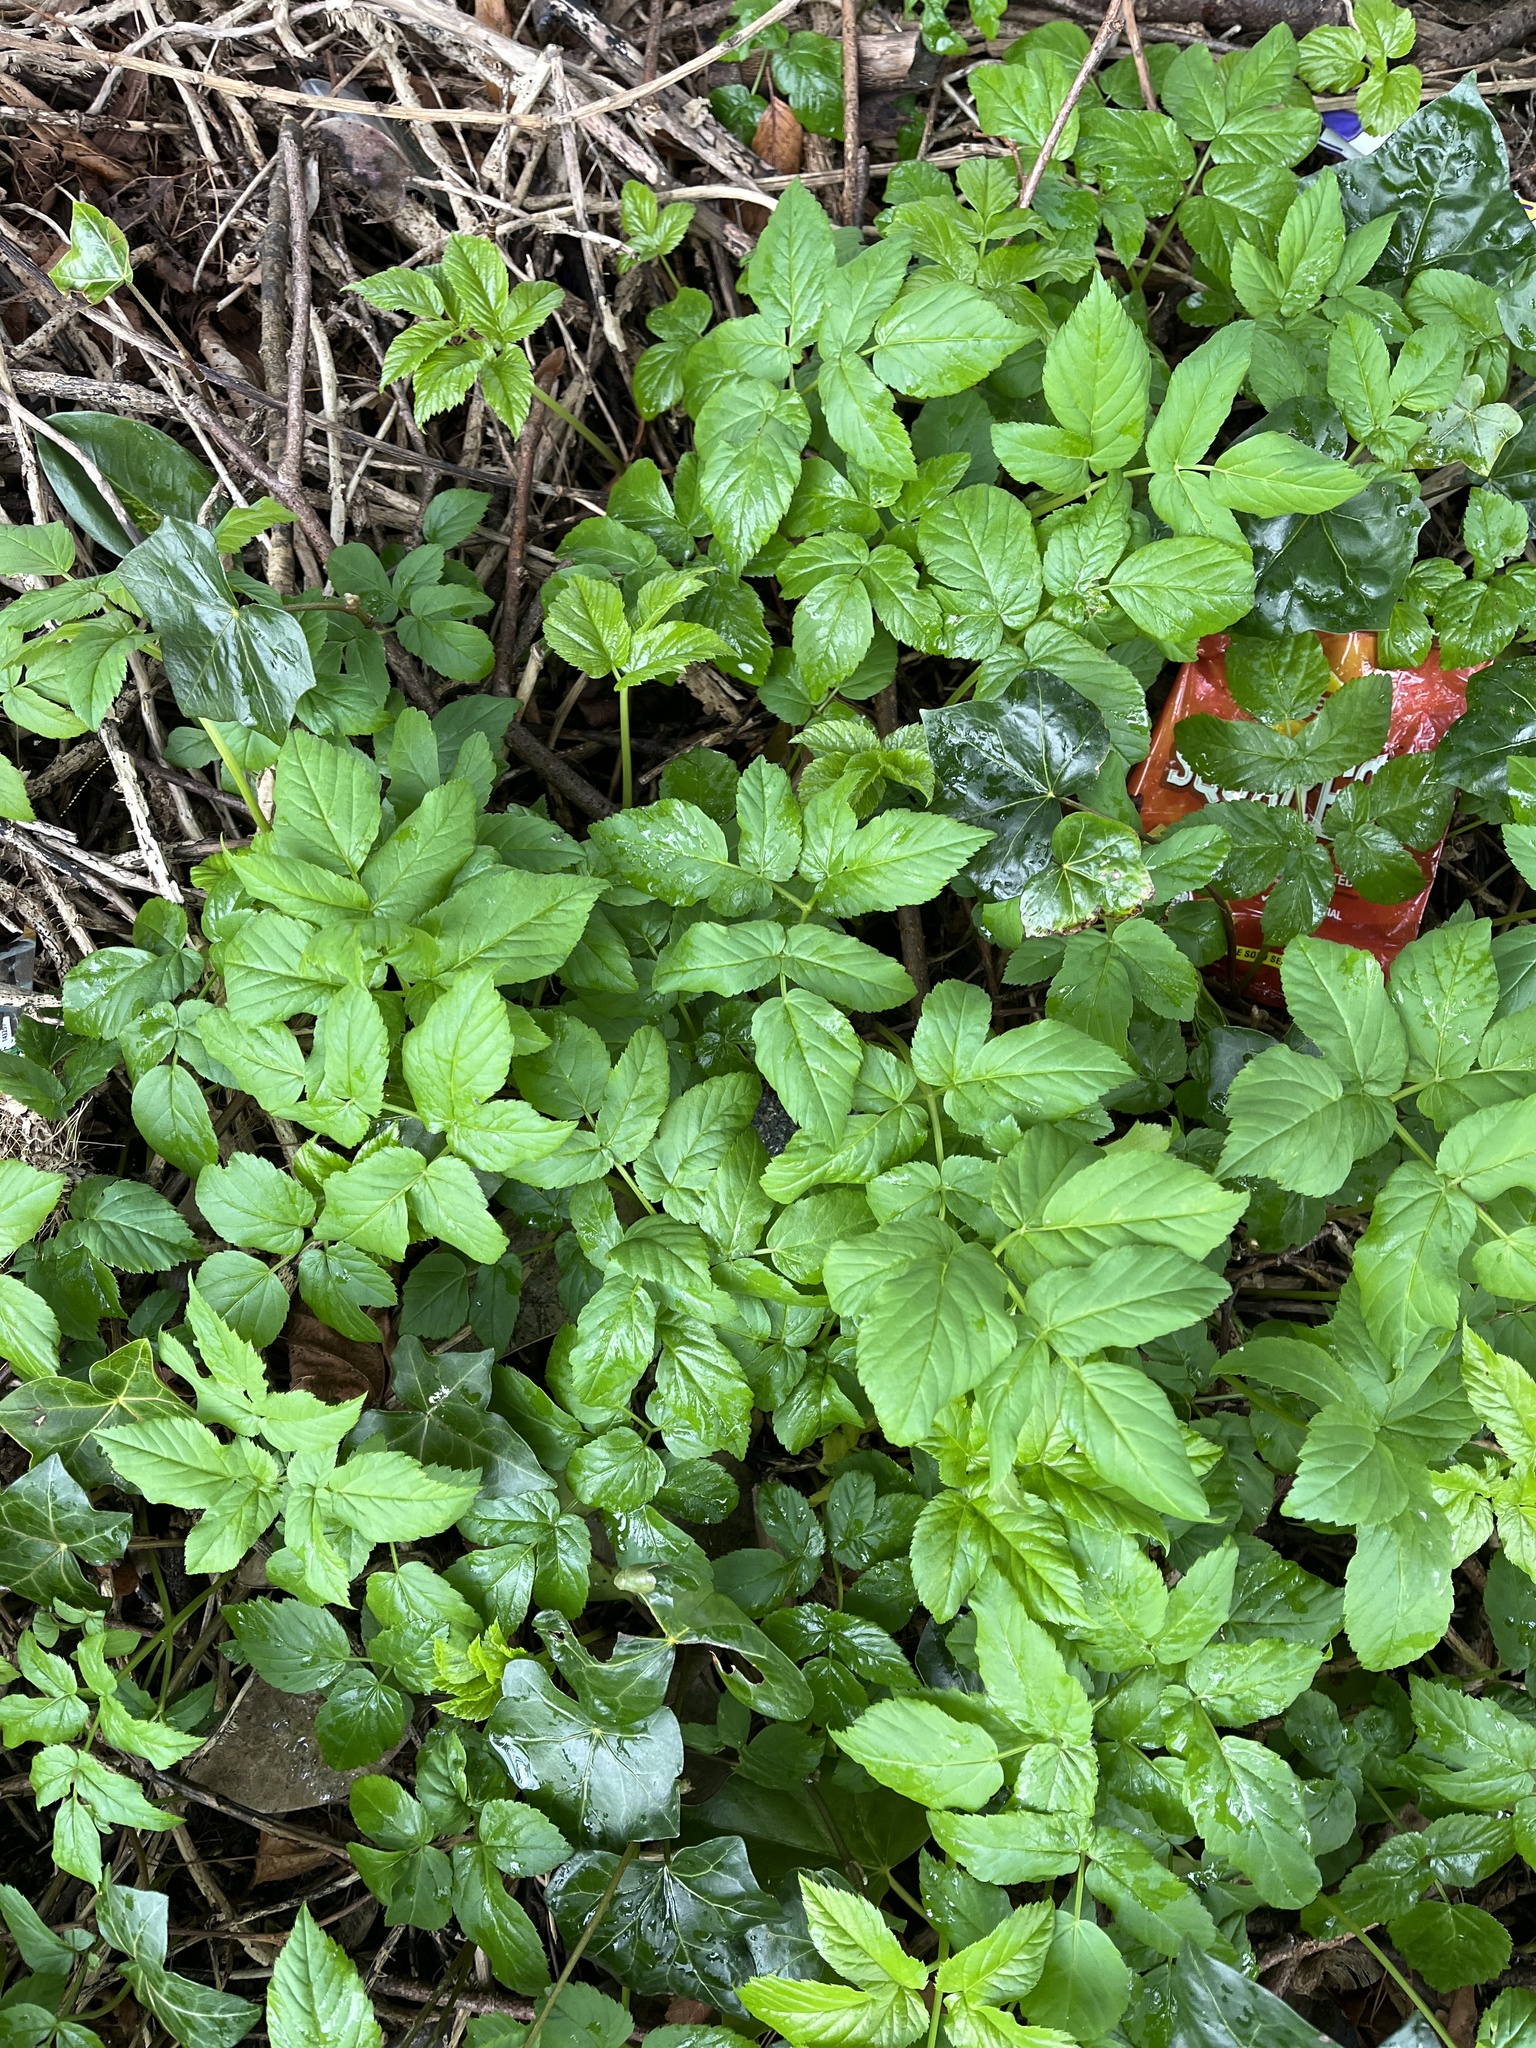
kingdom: Plantae
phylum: Tracheophyta
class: Magnoliopsida
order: Apiales
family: Apiaceae
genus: Aegopodium
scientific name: Aegopodium podagraria
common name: Ground-elder
